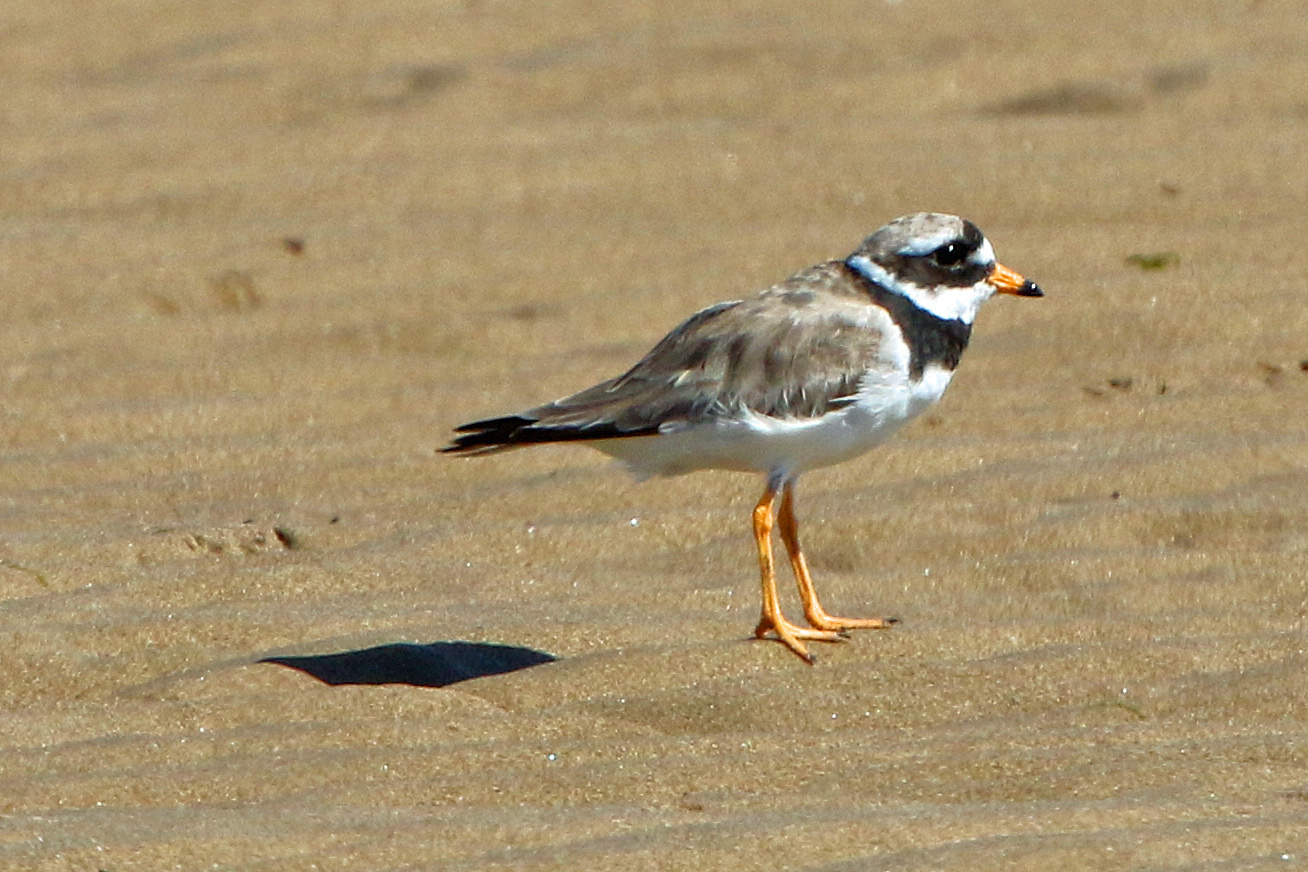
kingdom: Animalia
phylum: Chordata
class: Aves
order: Charadriiformes
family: Charadriidae
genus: Charadrius
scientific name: Charadrius hiaticula
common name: Common ringed plover
